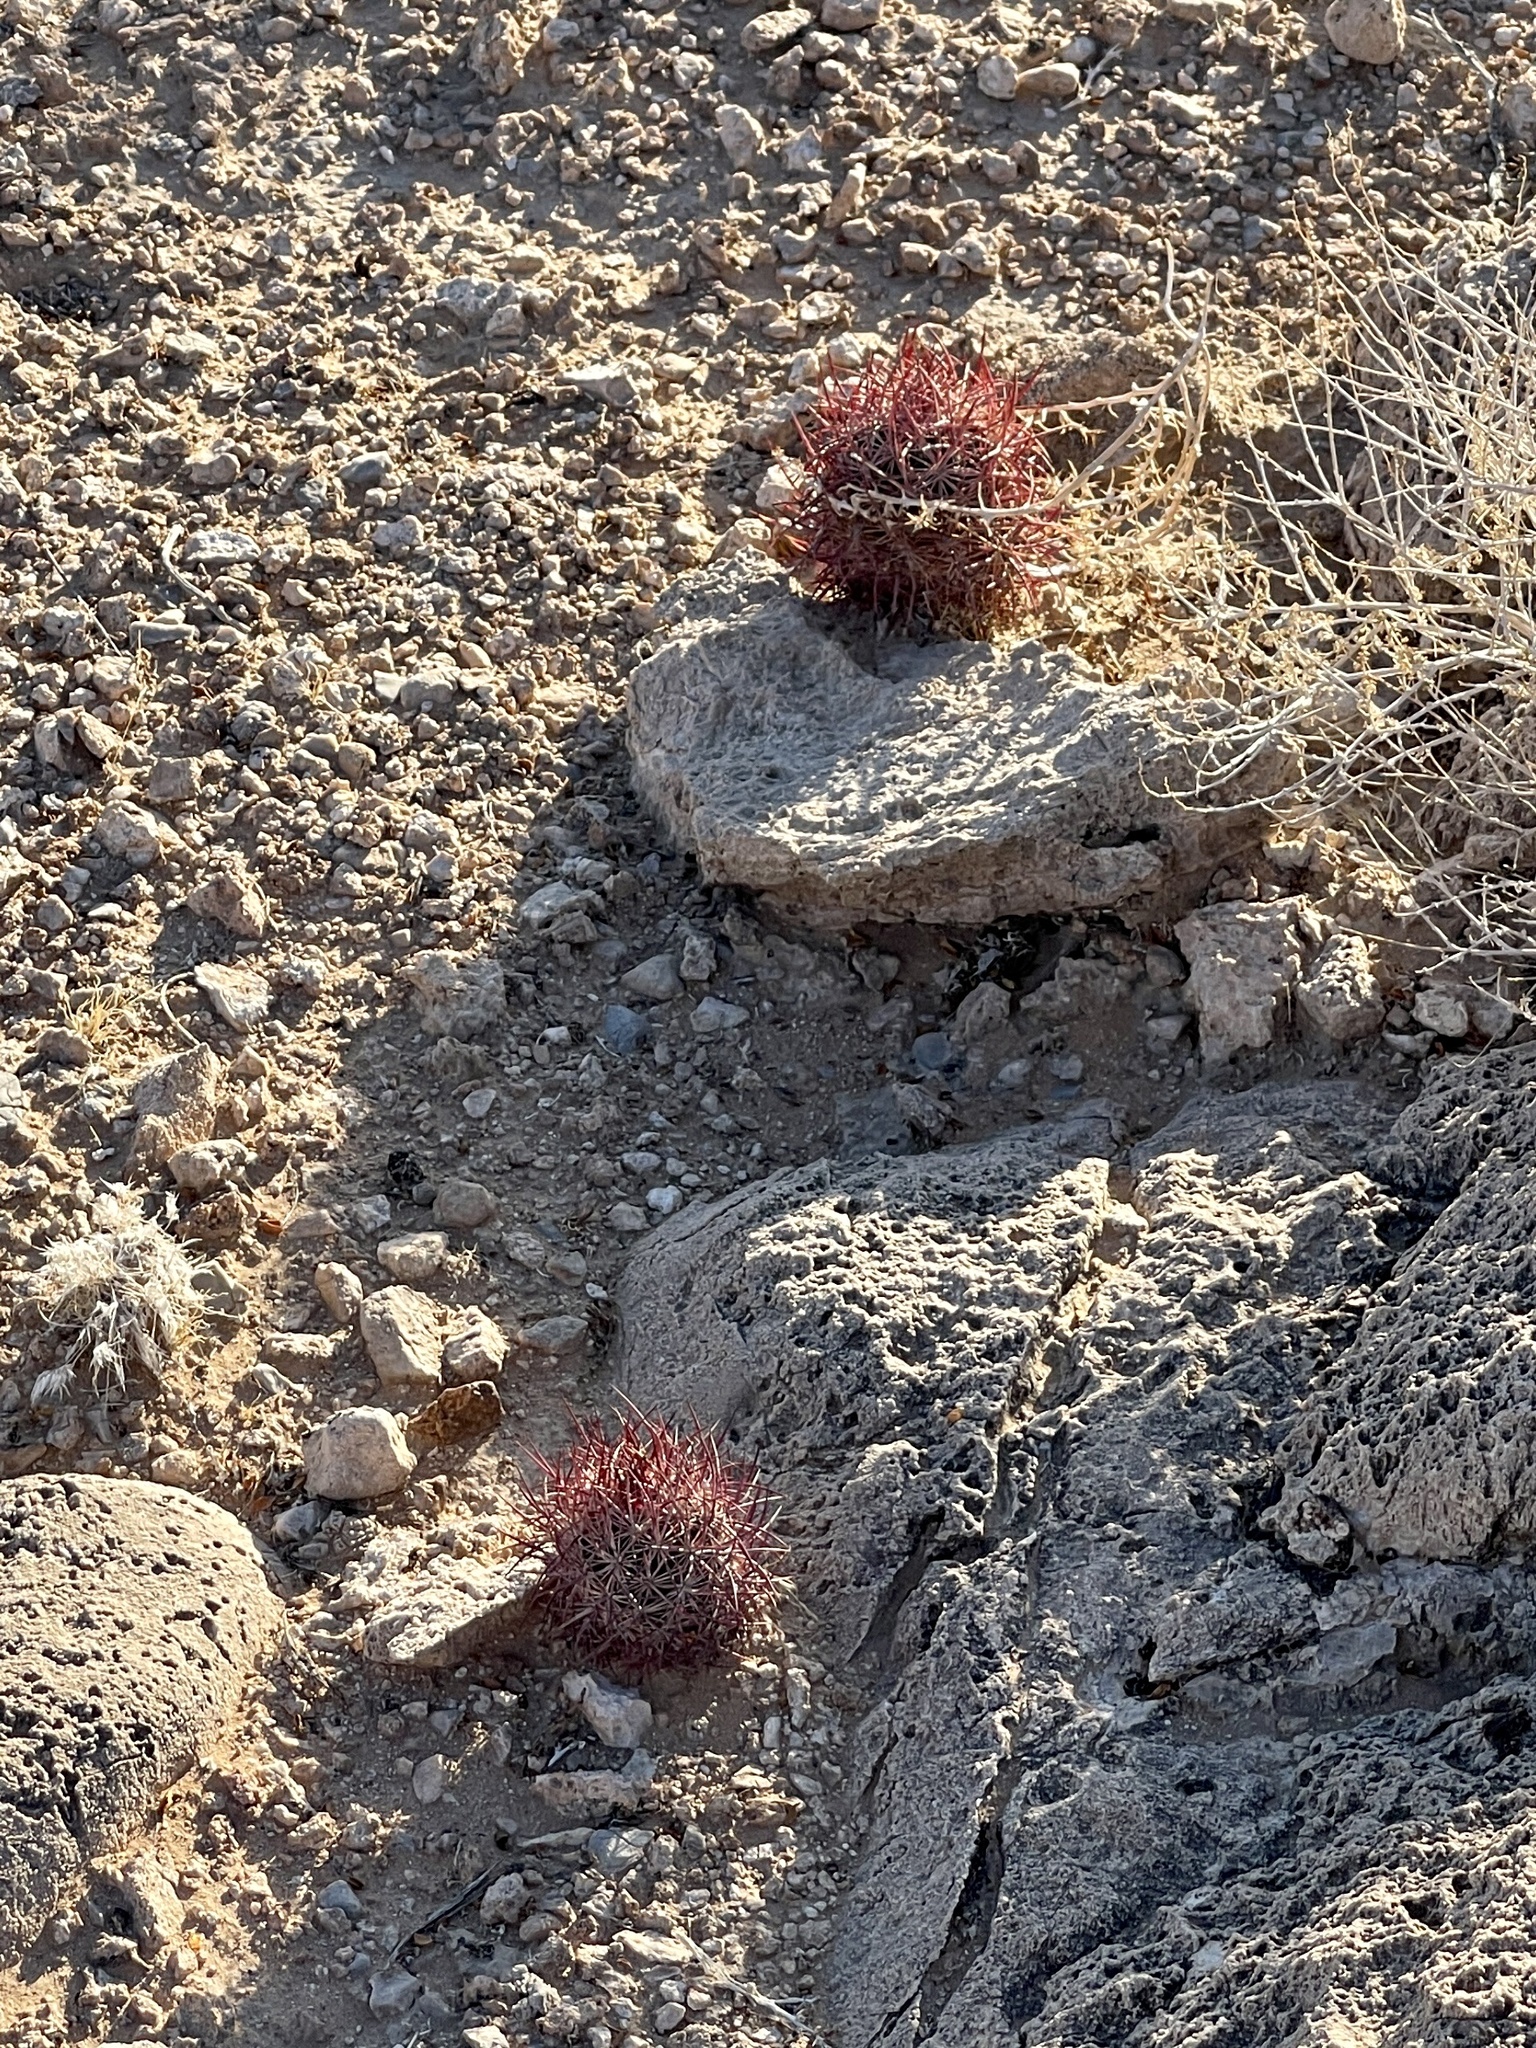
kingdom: Plantae
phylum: Tracheophyta
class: Magnoliopsida
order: Caryophyllales
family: Cactaceae
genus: Sclerocactus
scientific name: Sclerocactus johnsonii
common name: Eight-spine fishhook cactus
